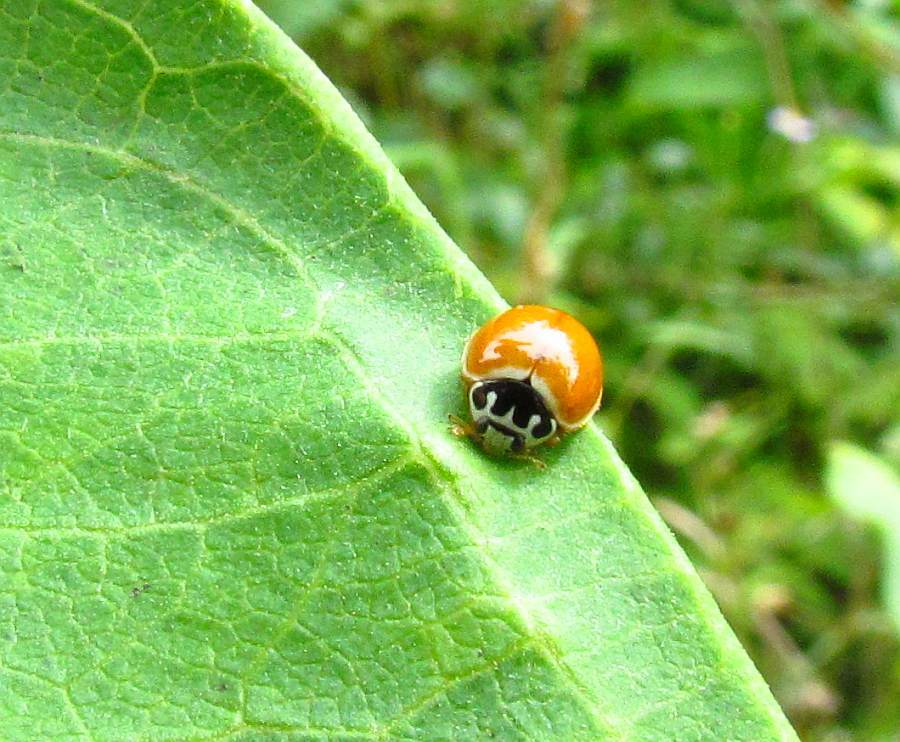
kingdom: Animalia
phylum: Arthropoda
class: Insecta
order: Coleoptera
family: Coccinellidae
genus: Cycloneda
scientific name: Cycloneda munda
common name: Polished lady beetle
